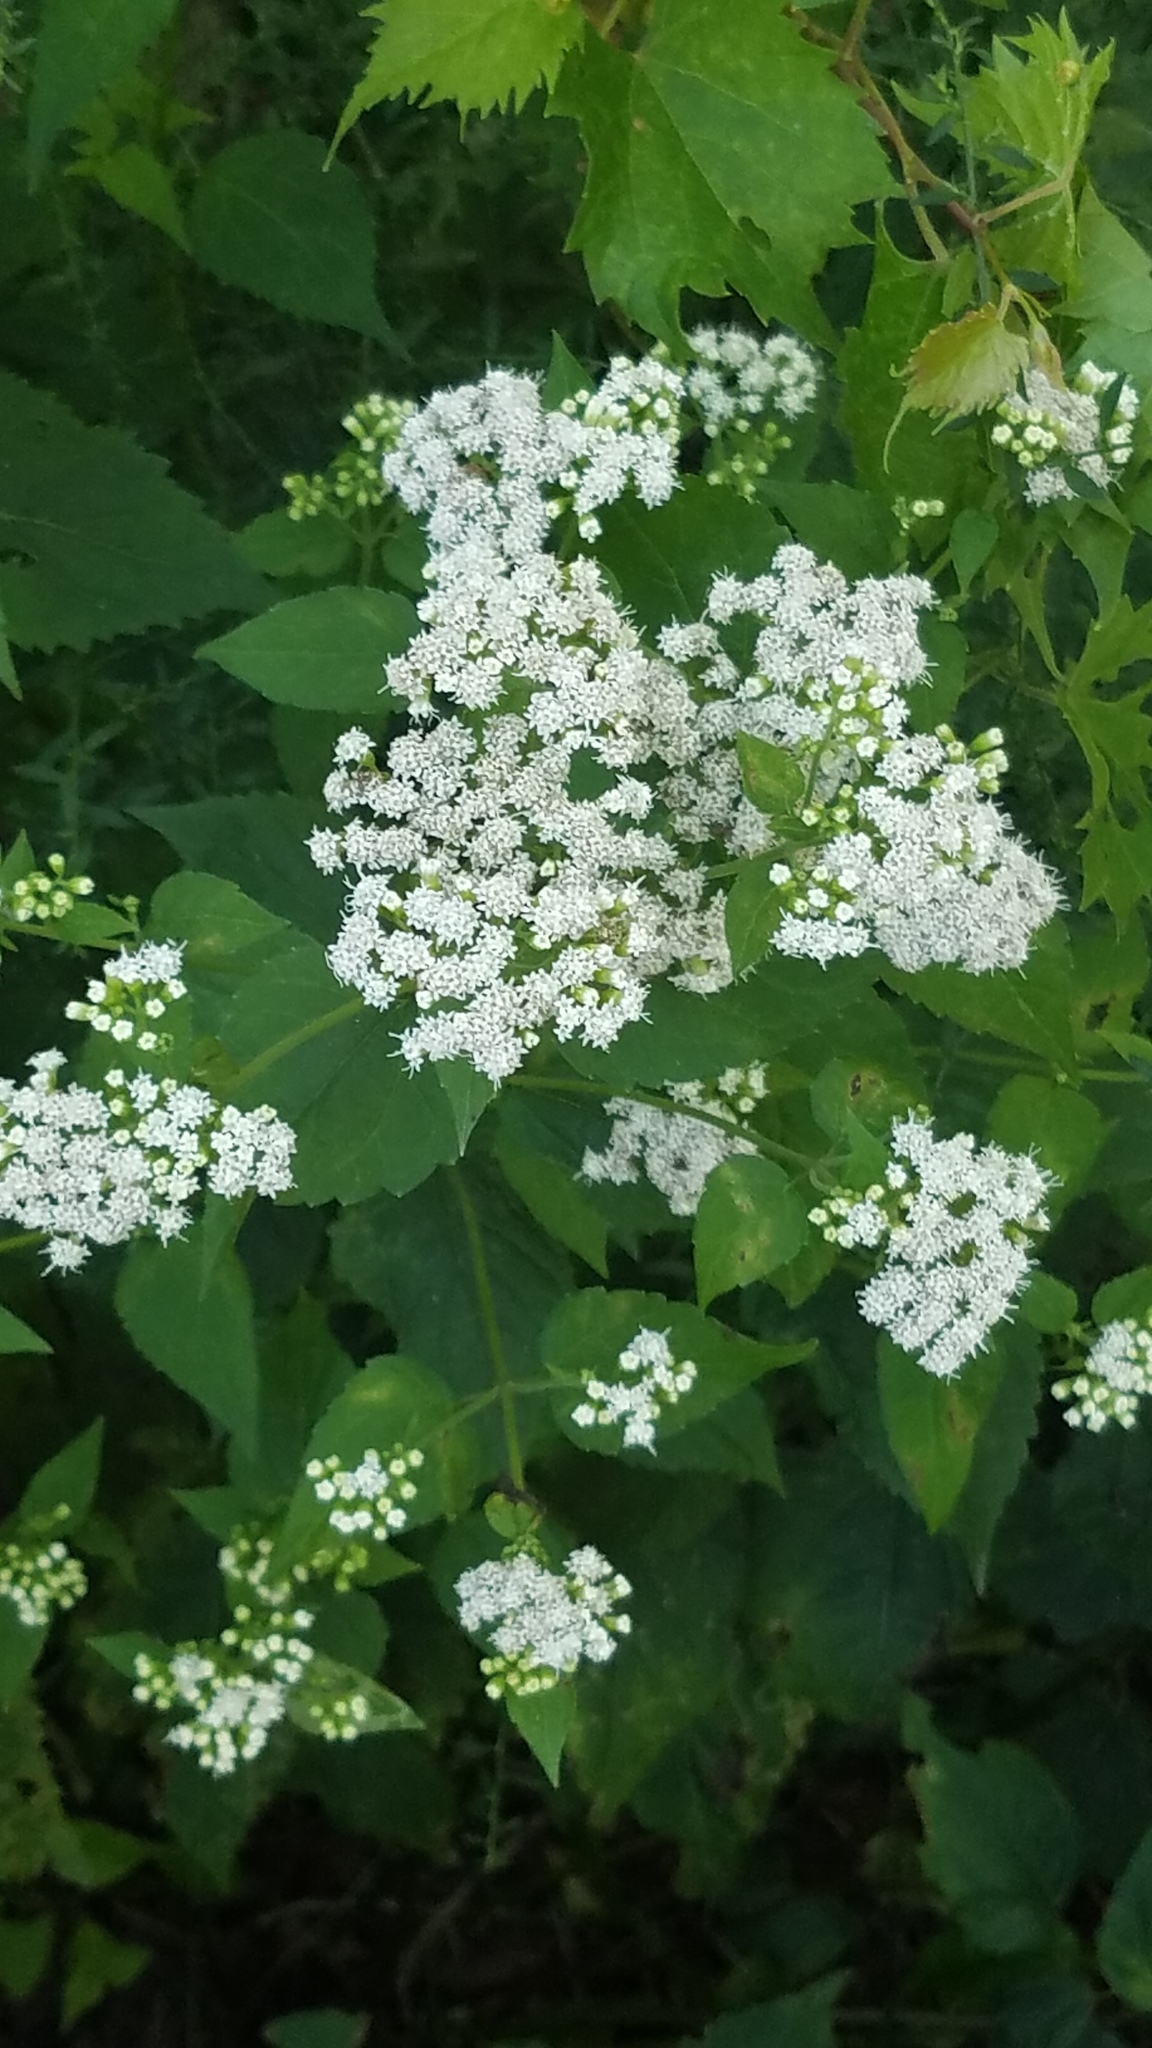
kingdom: Plantae
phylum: Tracheophyta
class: Magnoliopsida
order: Asterales
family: Asteraceae
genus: Ageratina
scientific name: Ageratina altissima
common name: White snakeroot
